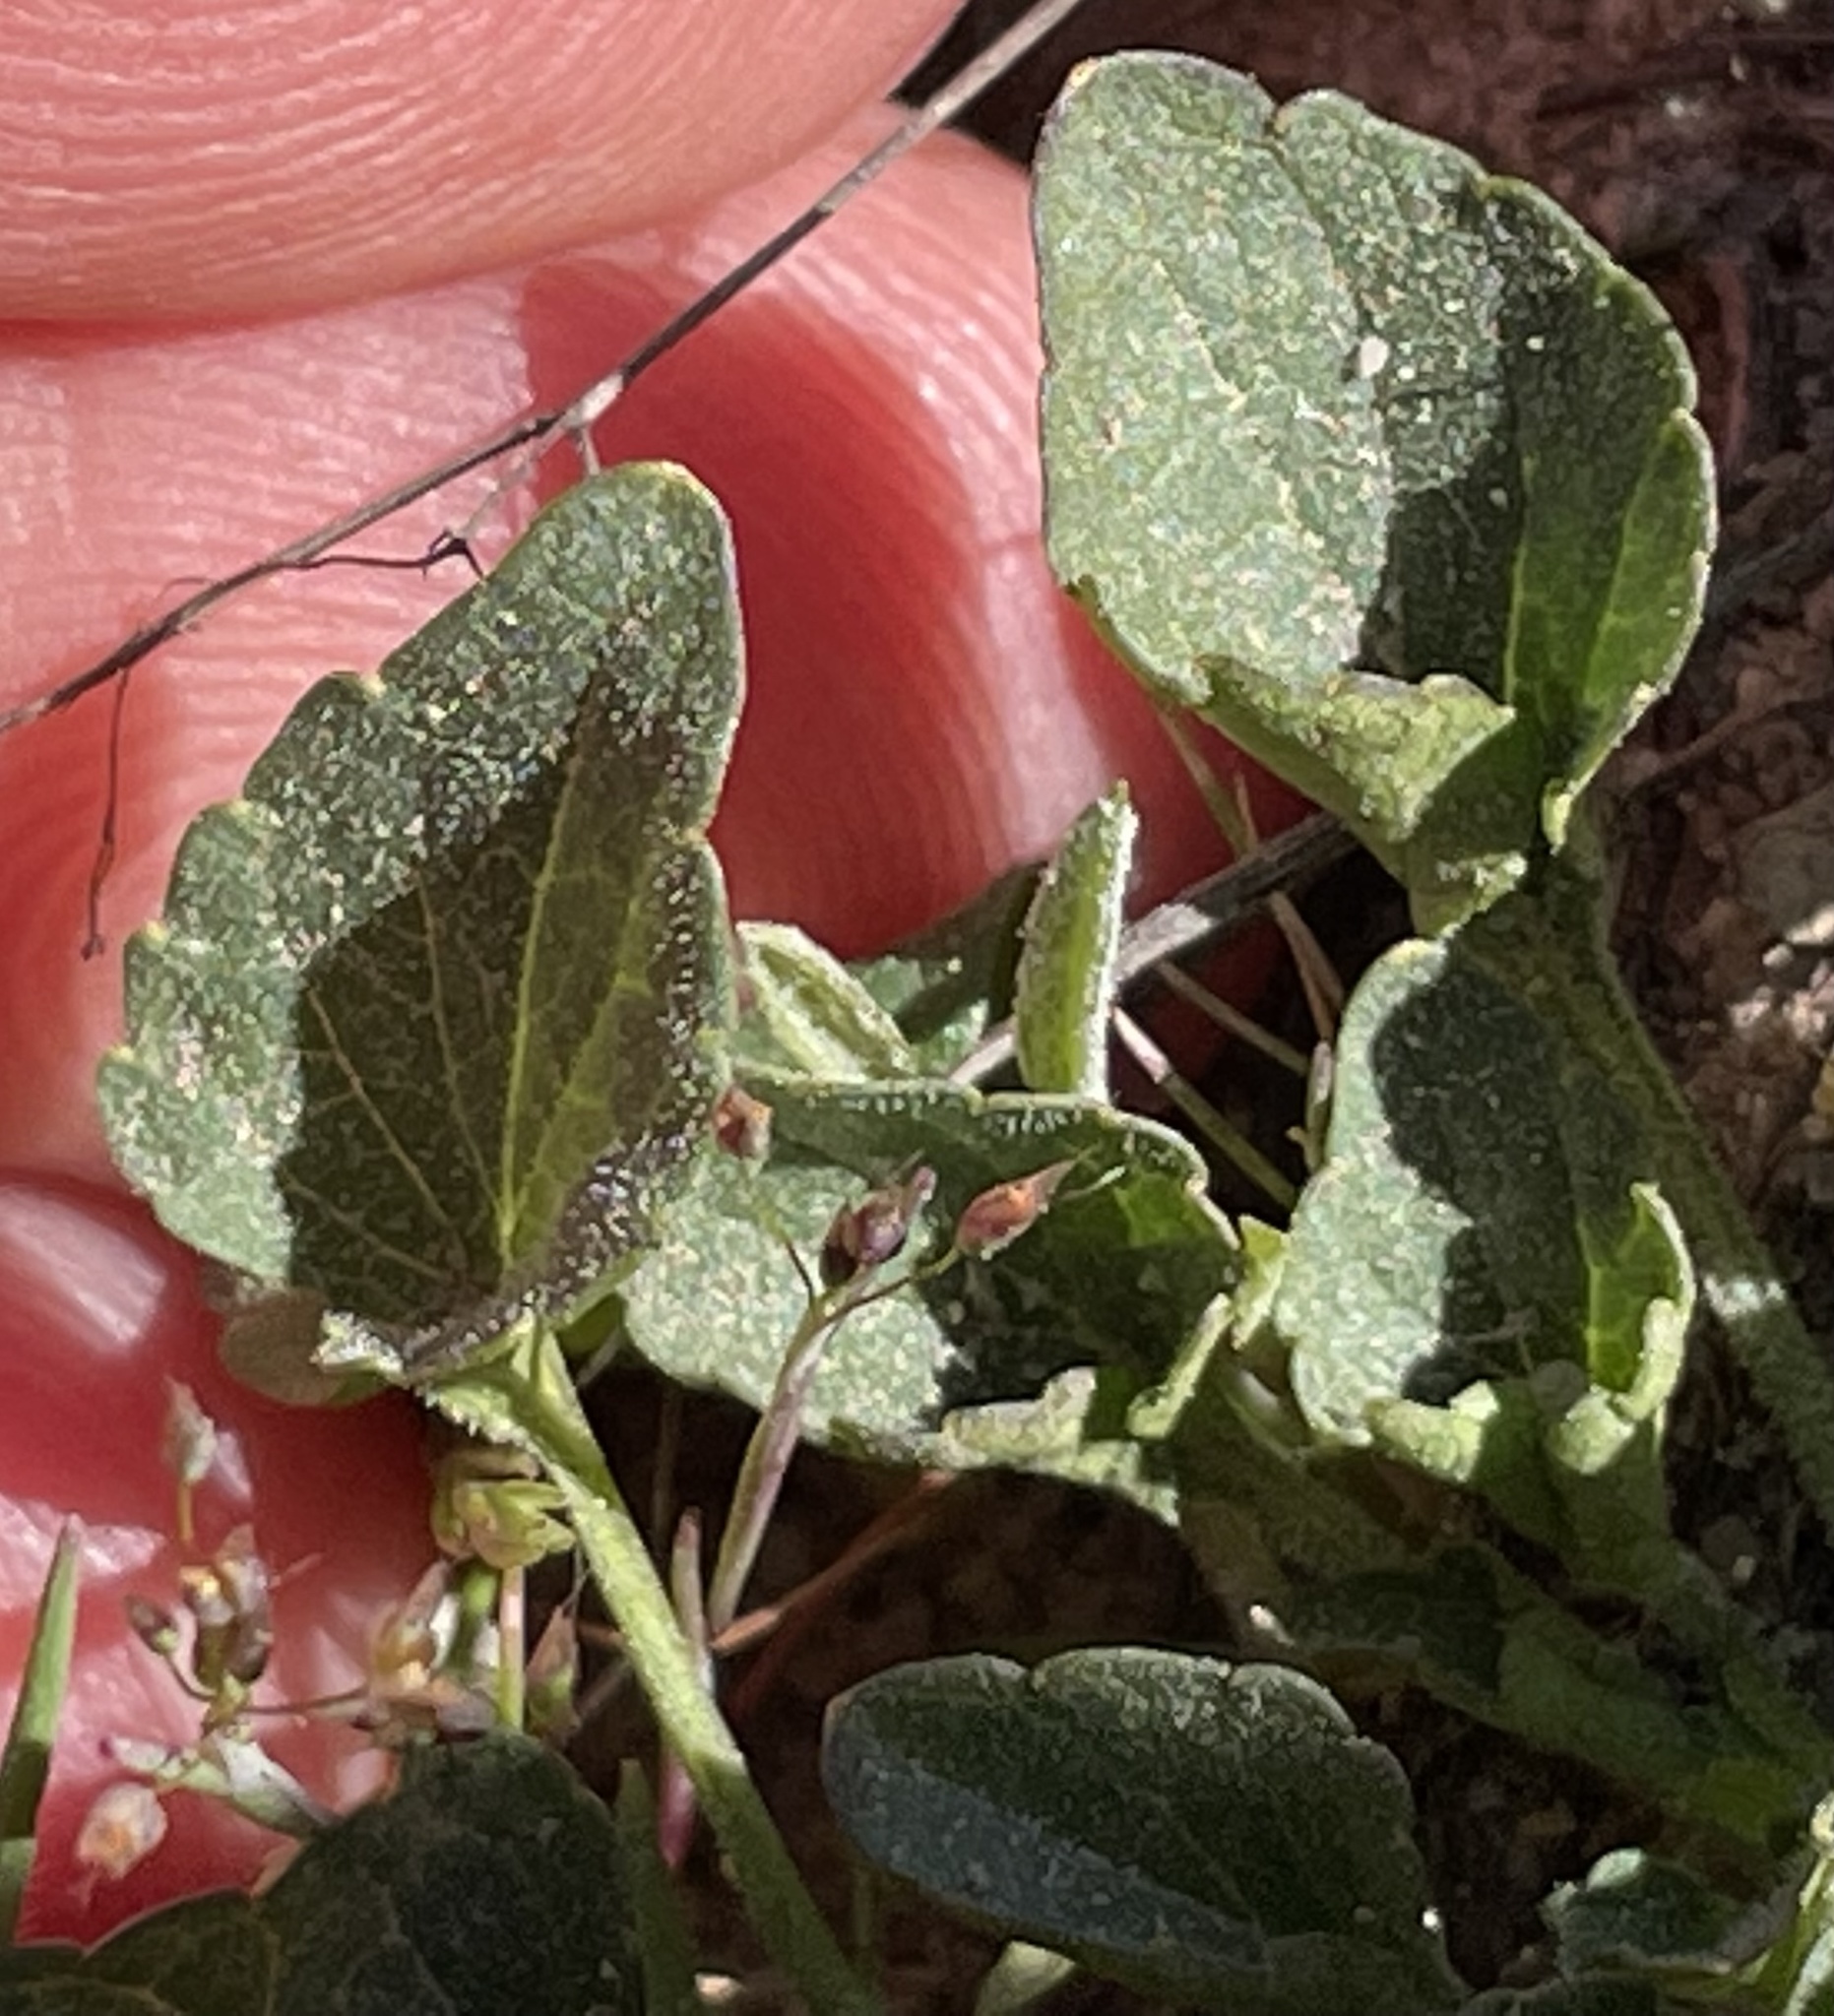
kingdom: Plantae
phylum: Tracheophyta
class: Magnoliopsida
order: Malpighiales
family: Violaceae
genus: Viola
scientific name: Viola pedunculata
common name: California golden violet
